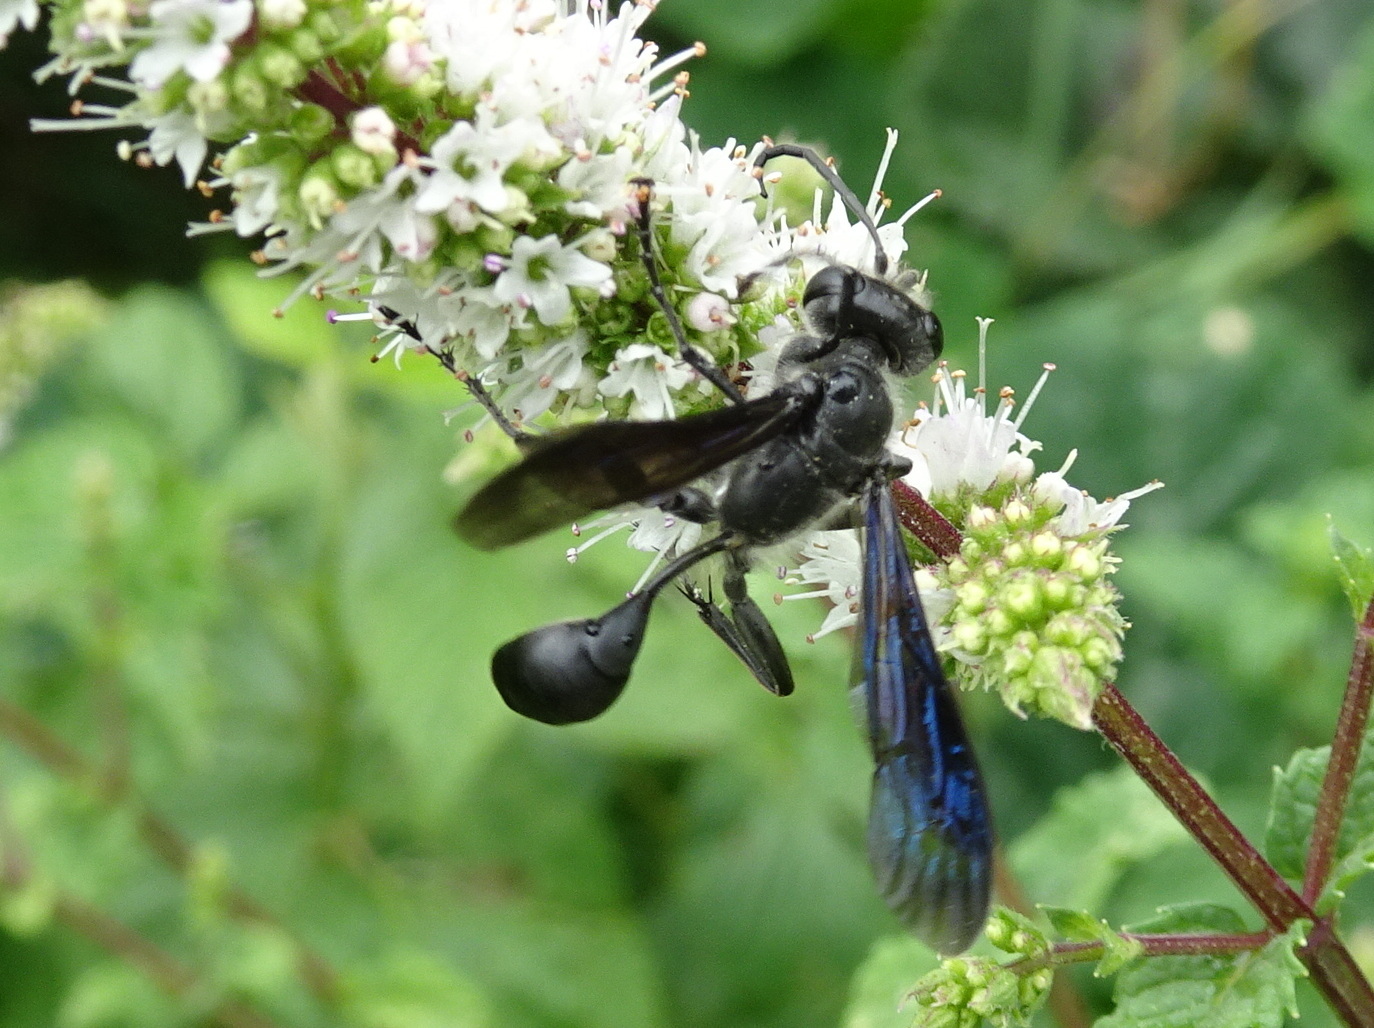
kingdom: Animalia
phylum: Arthropoda
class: Insecta
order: Hymenoptera
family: Sphecidae
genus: Isodontia
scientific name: Isodontia mexicana
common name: Mud dauber
